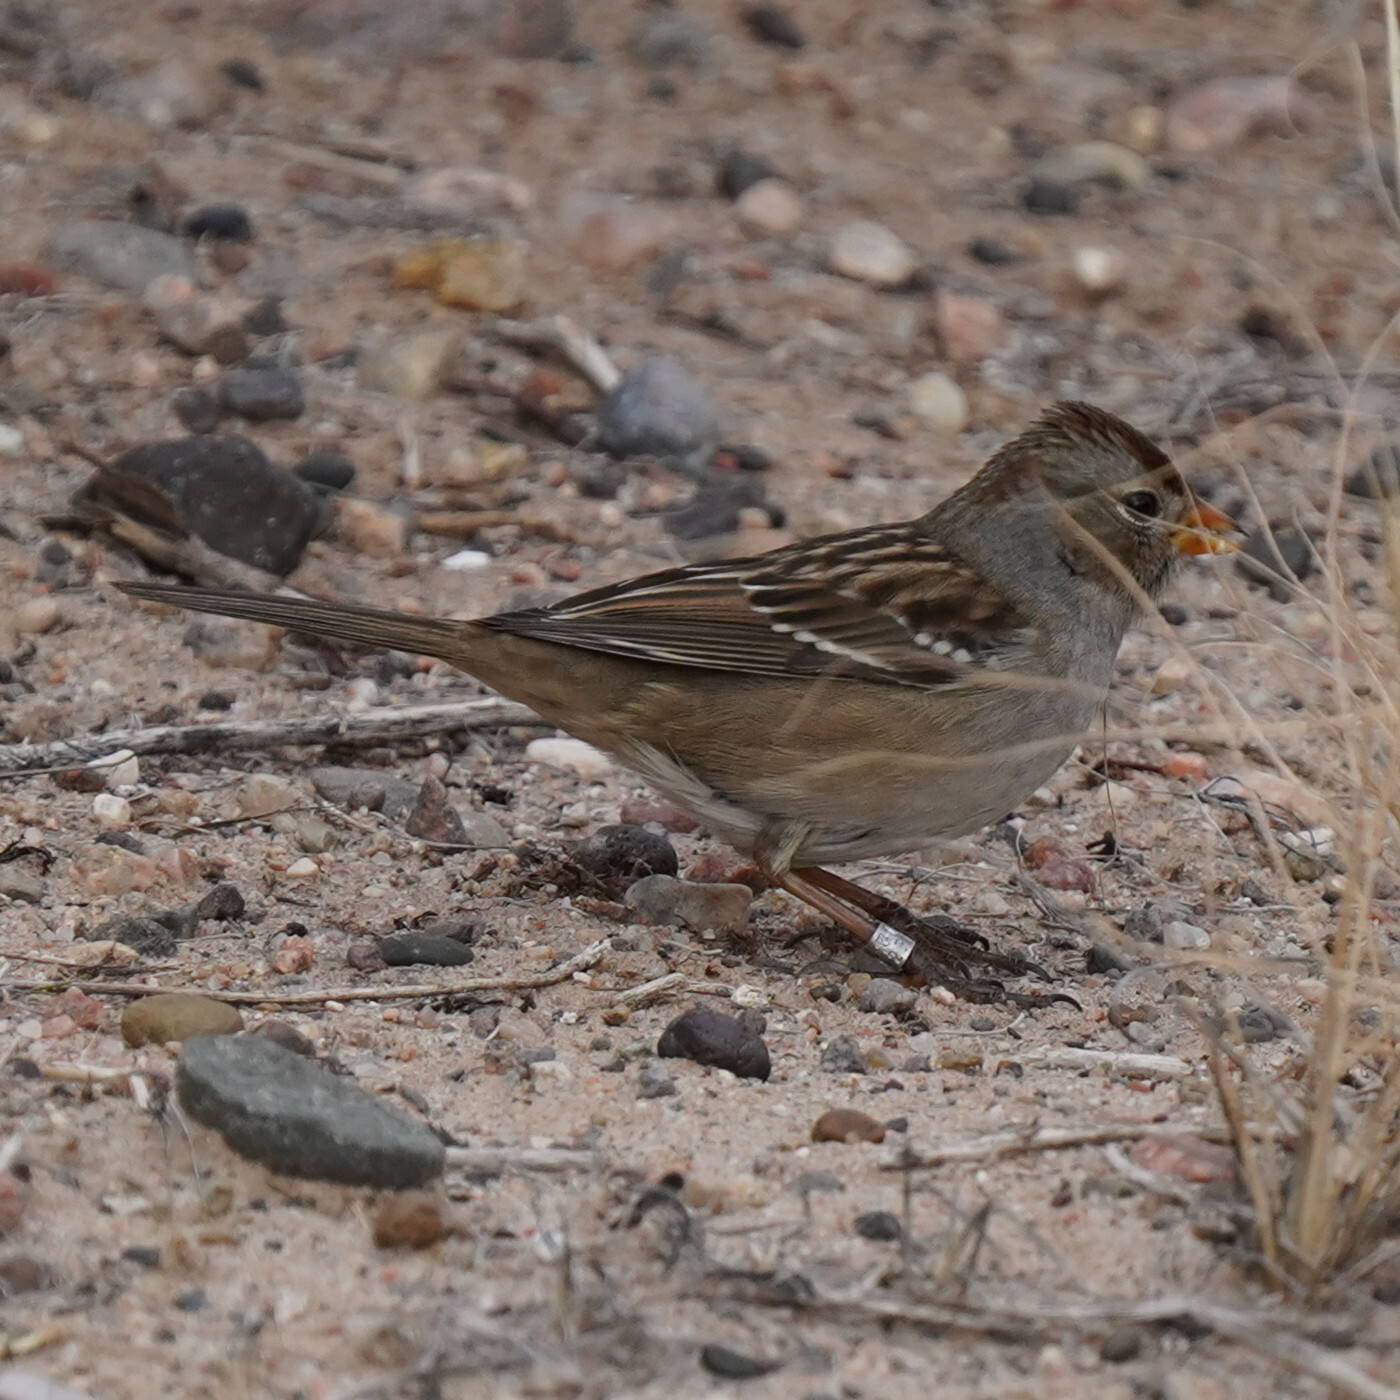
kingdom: Animalia
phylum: Chordata
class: Aves
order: Passeriformes
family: Passerellidae
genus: Zonotrichia
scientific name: Zonotrichia leucophrys
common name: White-crowned sparrow
